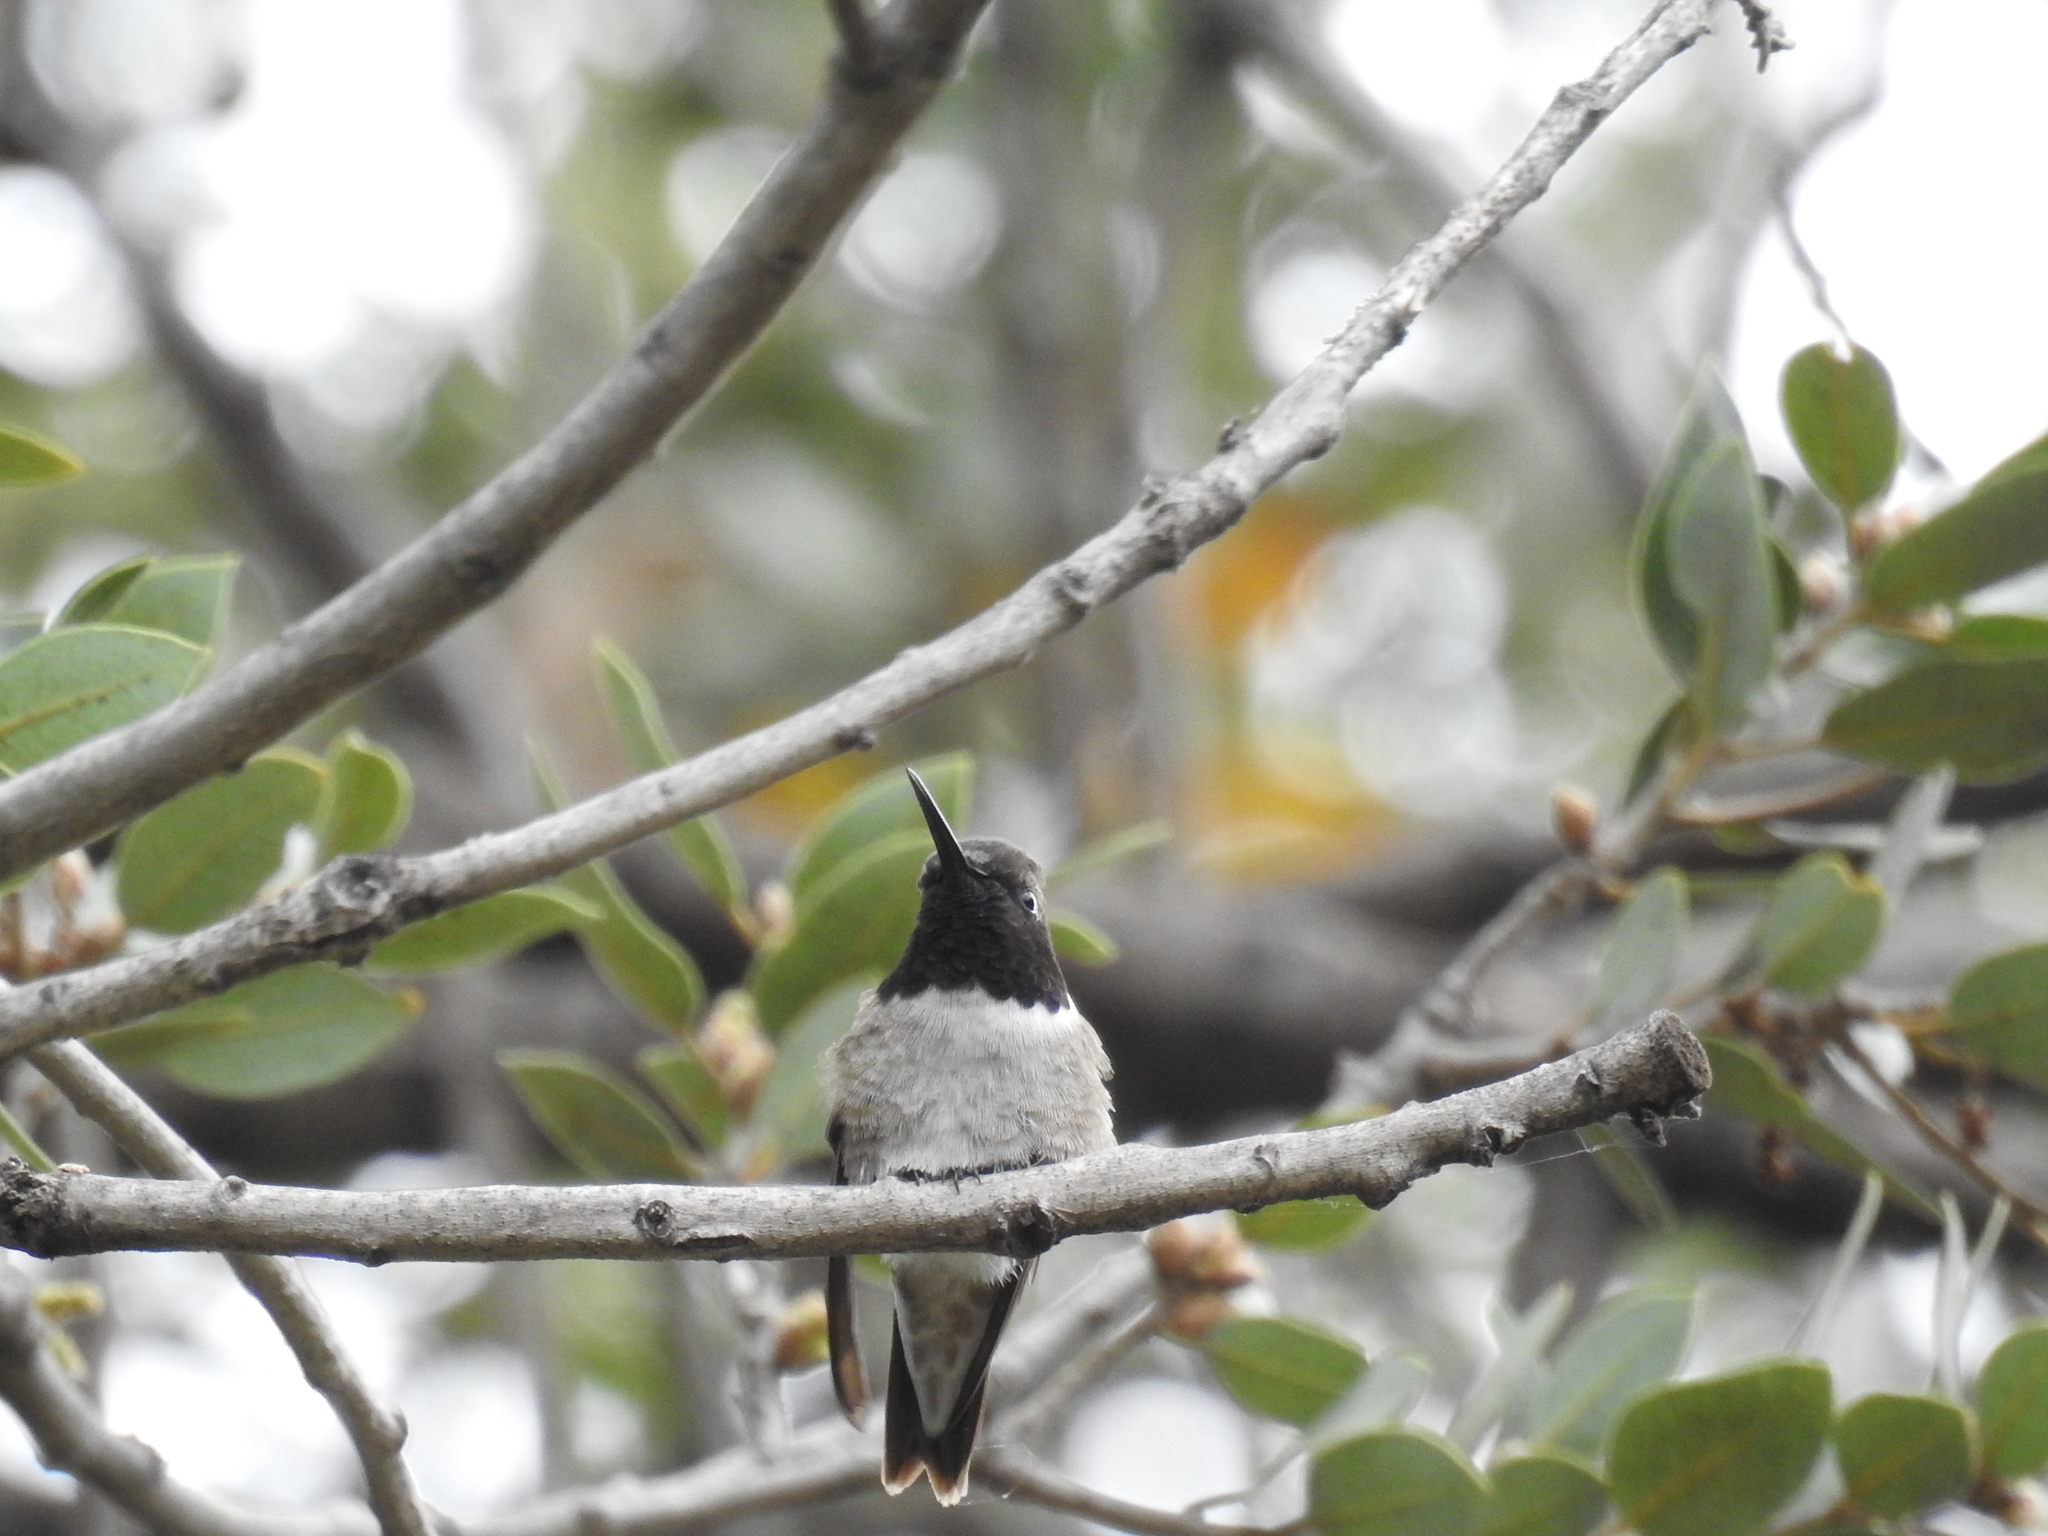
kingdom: Animalia
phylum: Chordata
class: Aves
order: Apodiformes
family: Trochilidae
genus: Archilochus
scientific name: Archilochus alexandri
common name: Black-chinned hummingbird
